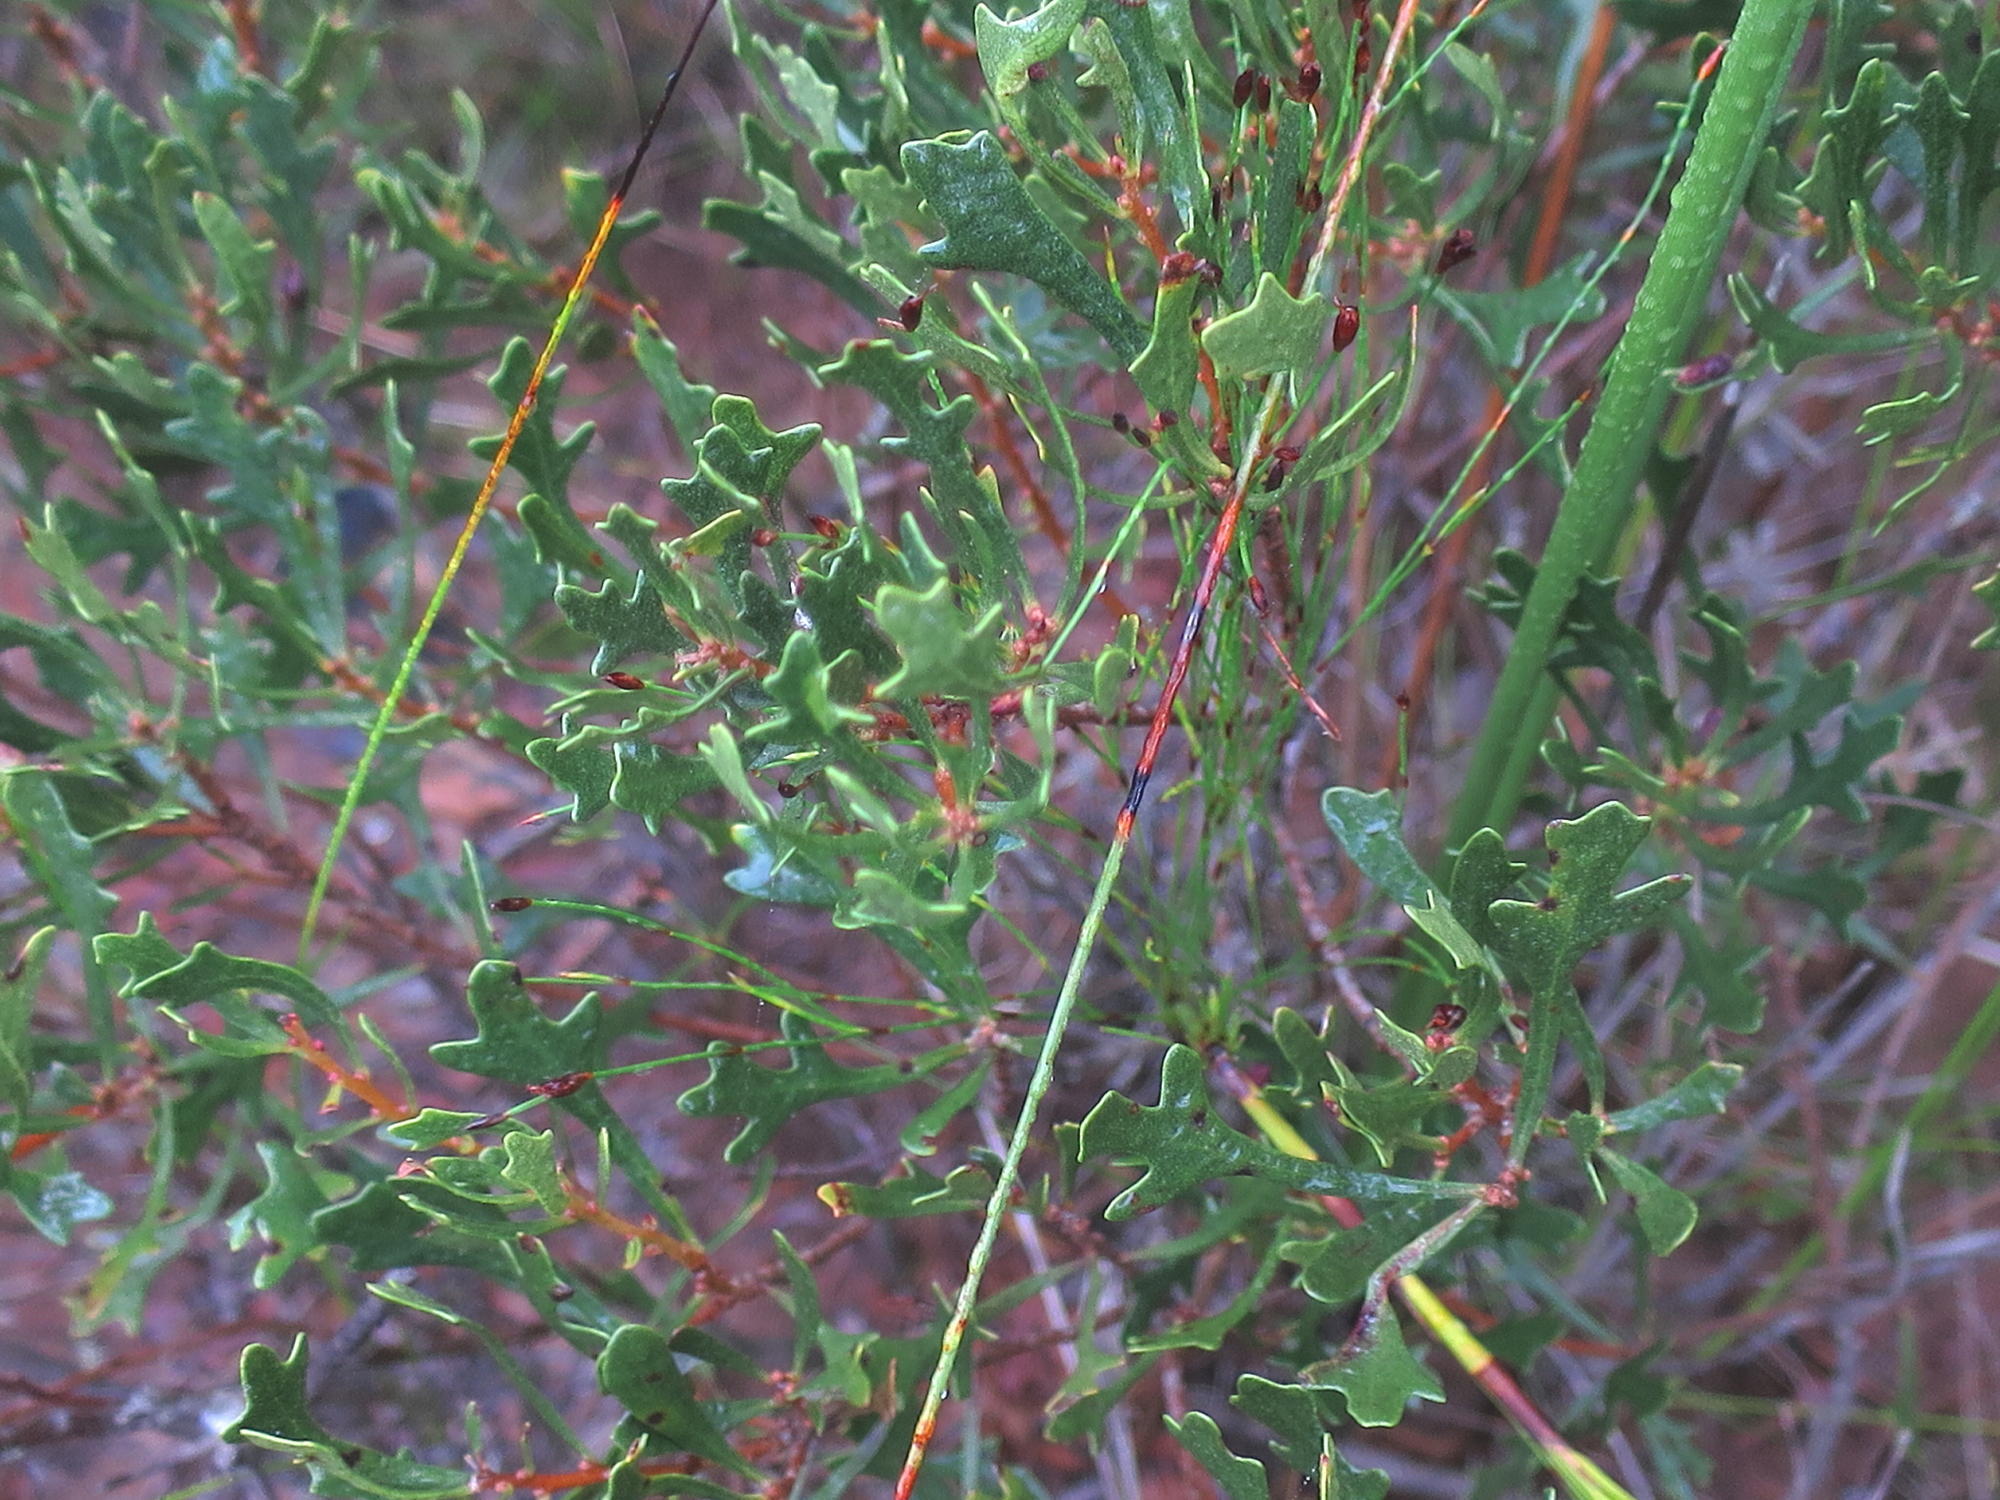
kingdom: Plantae
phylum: Tracheophyta
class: Magnoliopsida
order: Fagales
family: Myricaceae
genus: Morella
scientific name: Morella quercifolia
